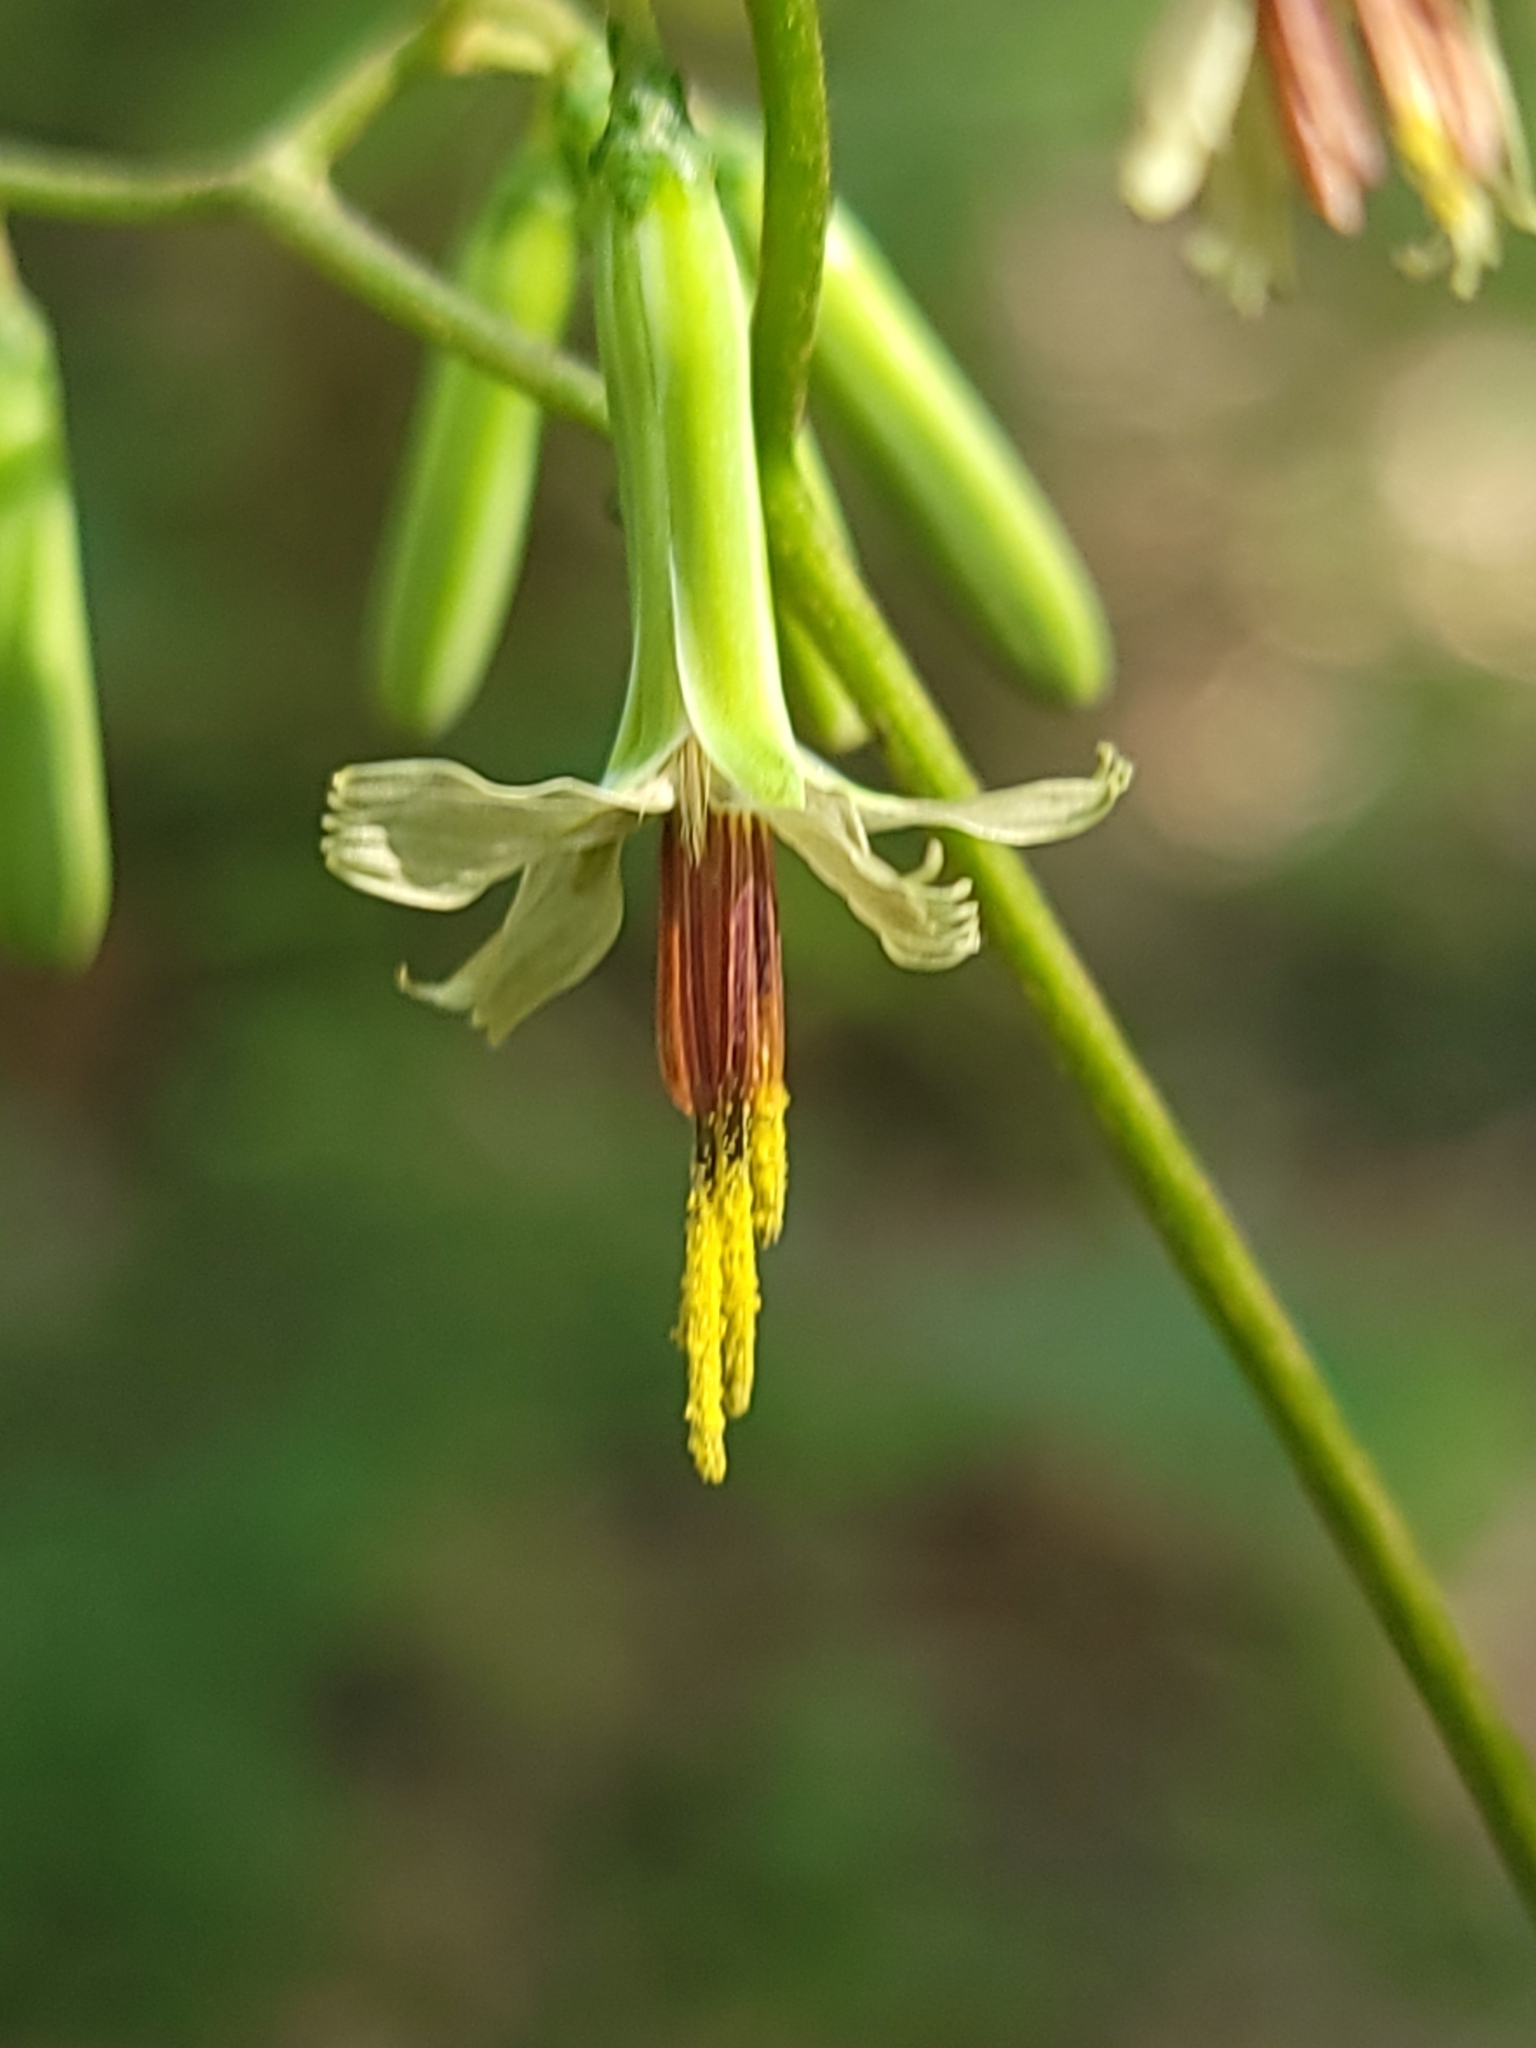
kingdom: Plantae
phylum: Tracheophyta
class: Magnoliopsida
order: Asterales
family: Asteraceae
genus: Nabalus
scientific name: Nabalus altissima
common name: Tall rattlesnakeroot
